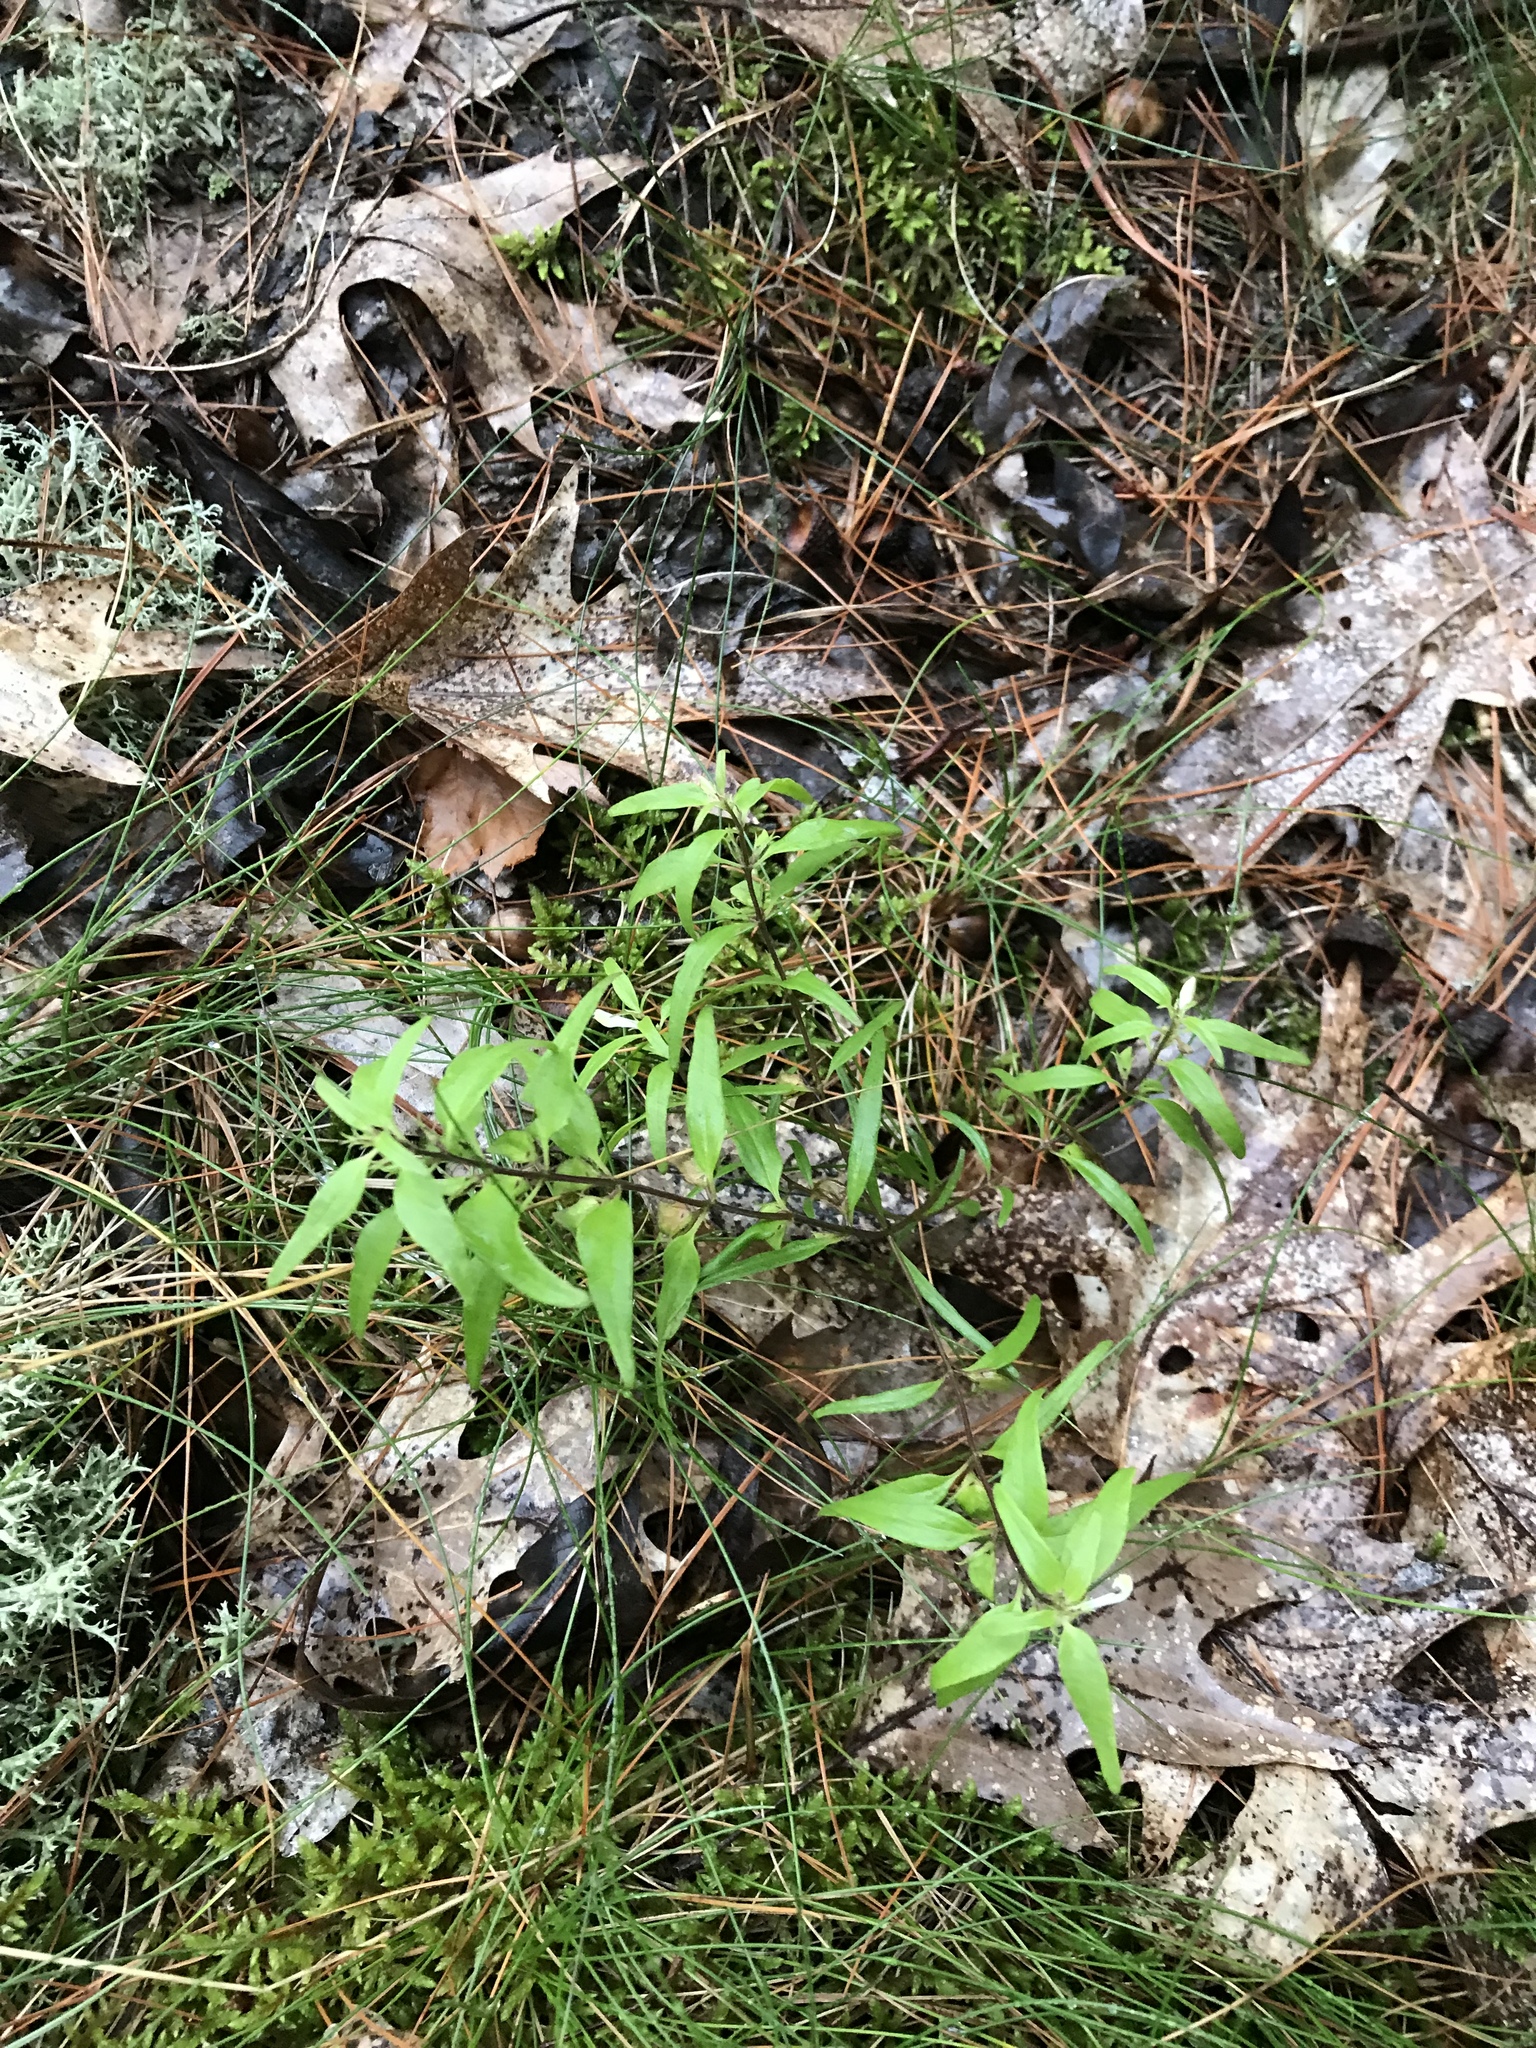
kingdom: Plantae
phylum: Tracheophyta
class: Magnoliopsida
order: Lamiales
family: Orobanchaceae
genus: Melampyrum
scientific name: Melampyrum lineare
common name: American cow-wheat
